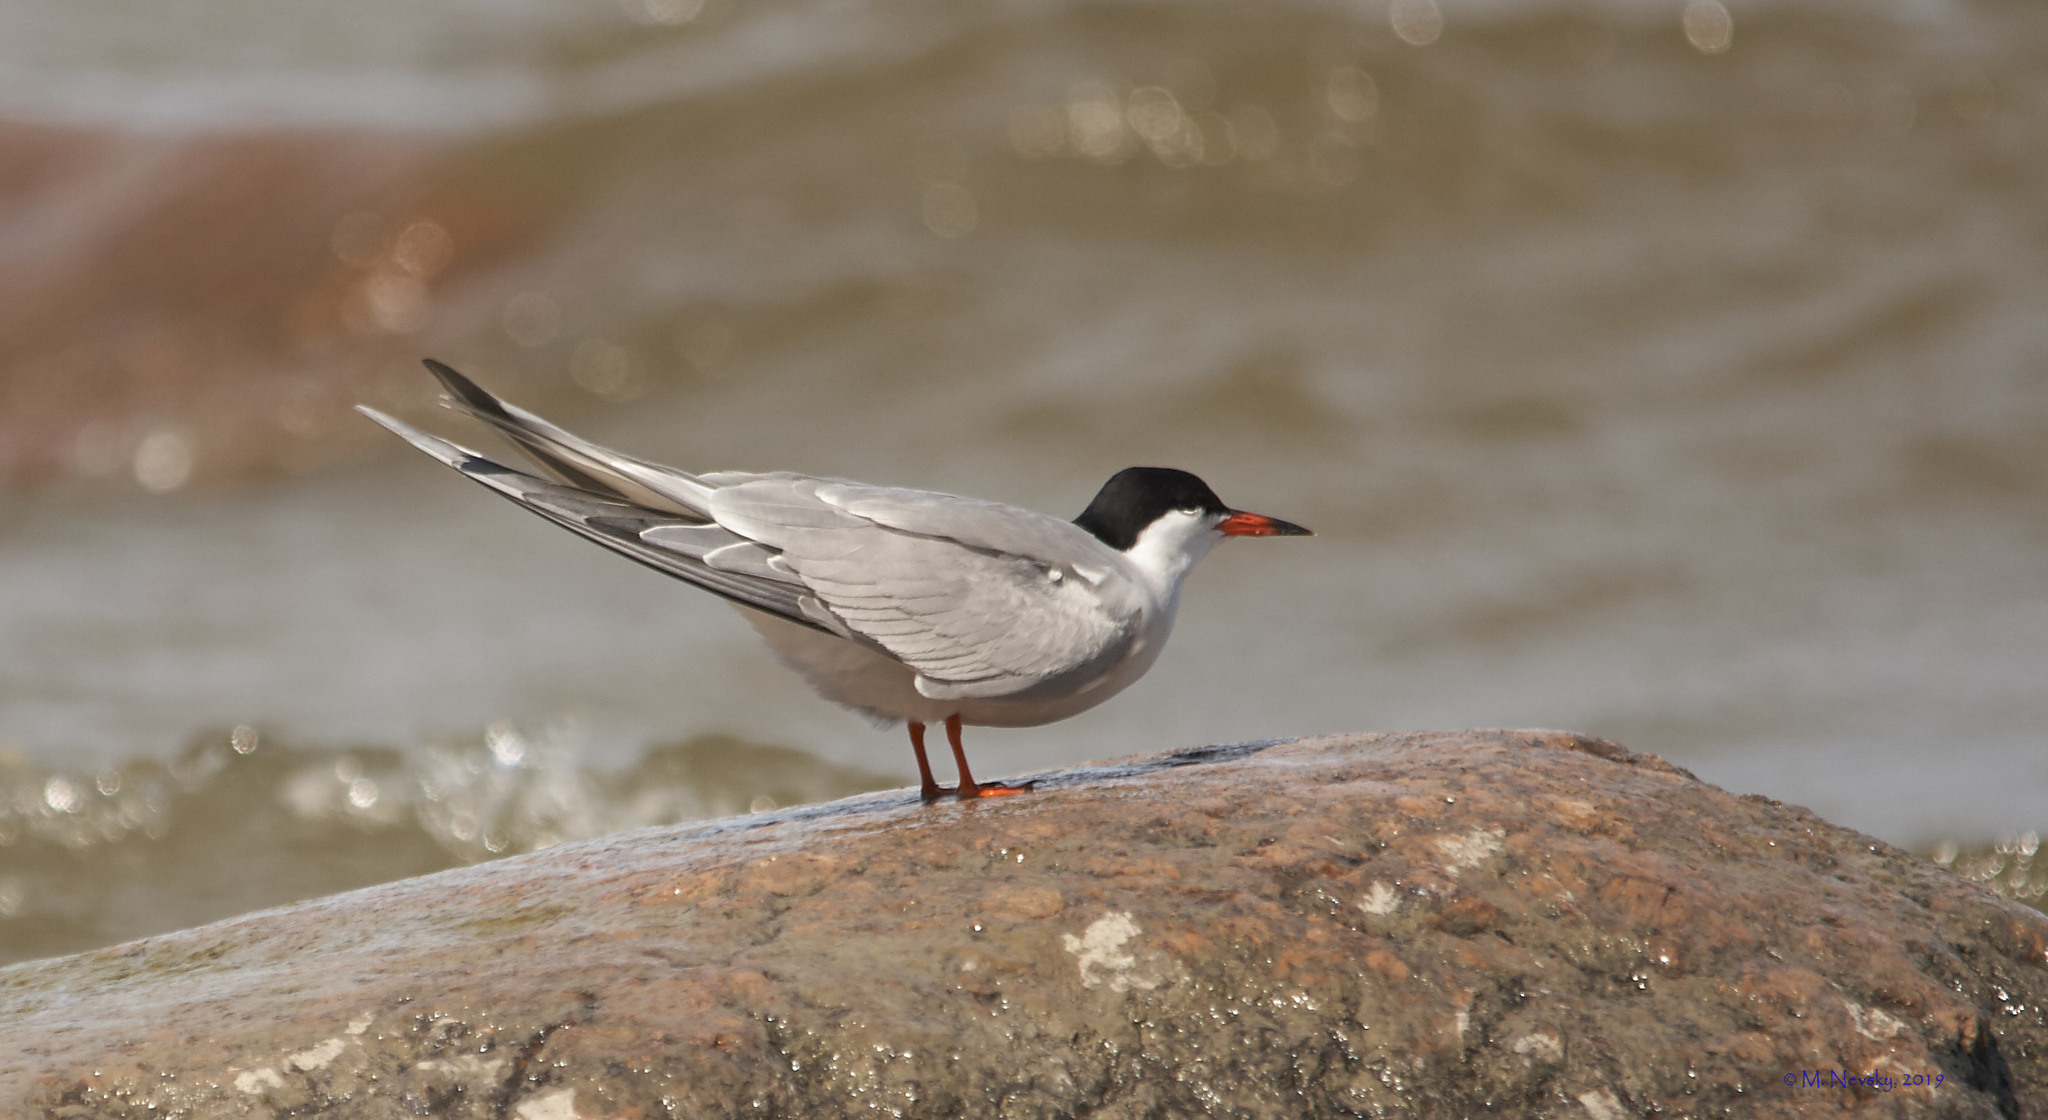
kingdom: Animalia
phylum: Chordata
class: Aves
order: Charadriiformes
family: Laridae
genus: Sterna
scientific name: Sterna hirundo
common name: Common tern
